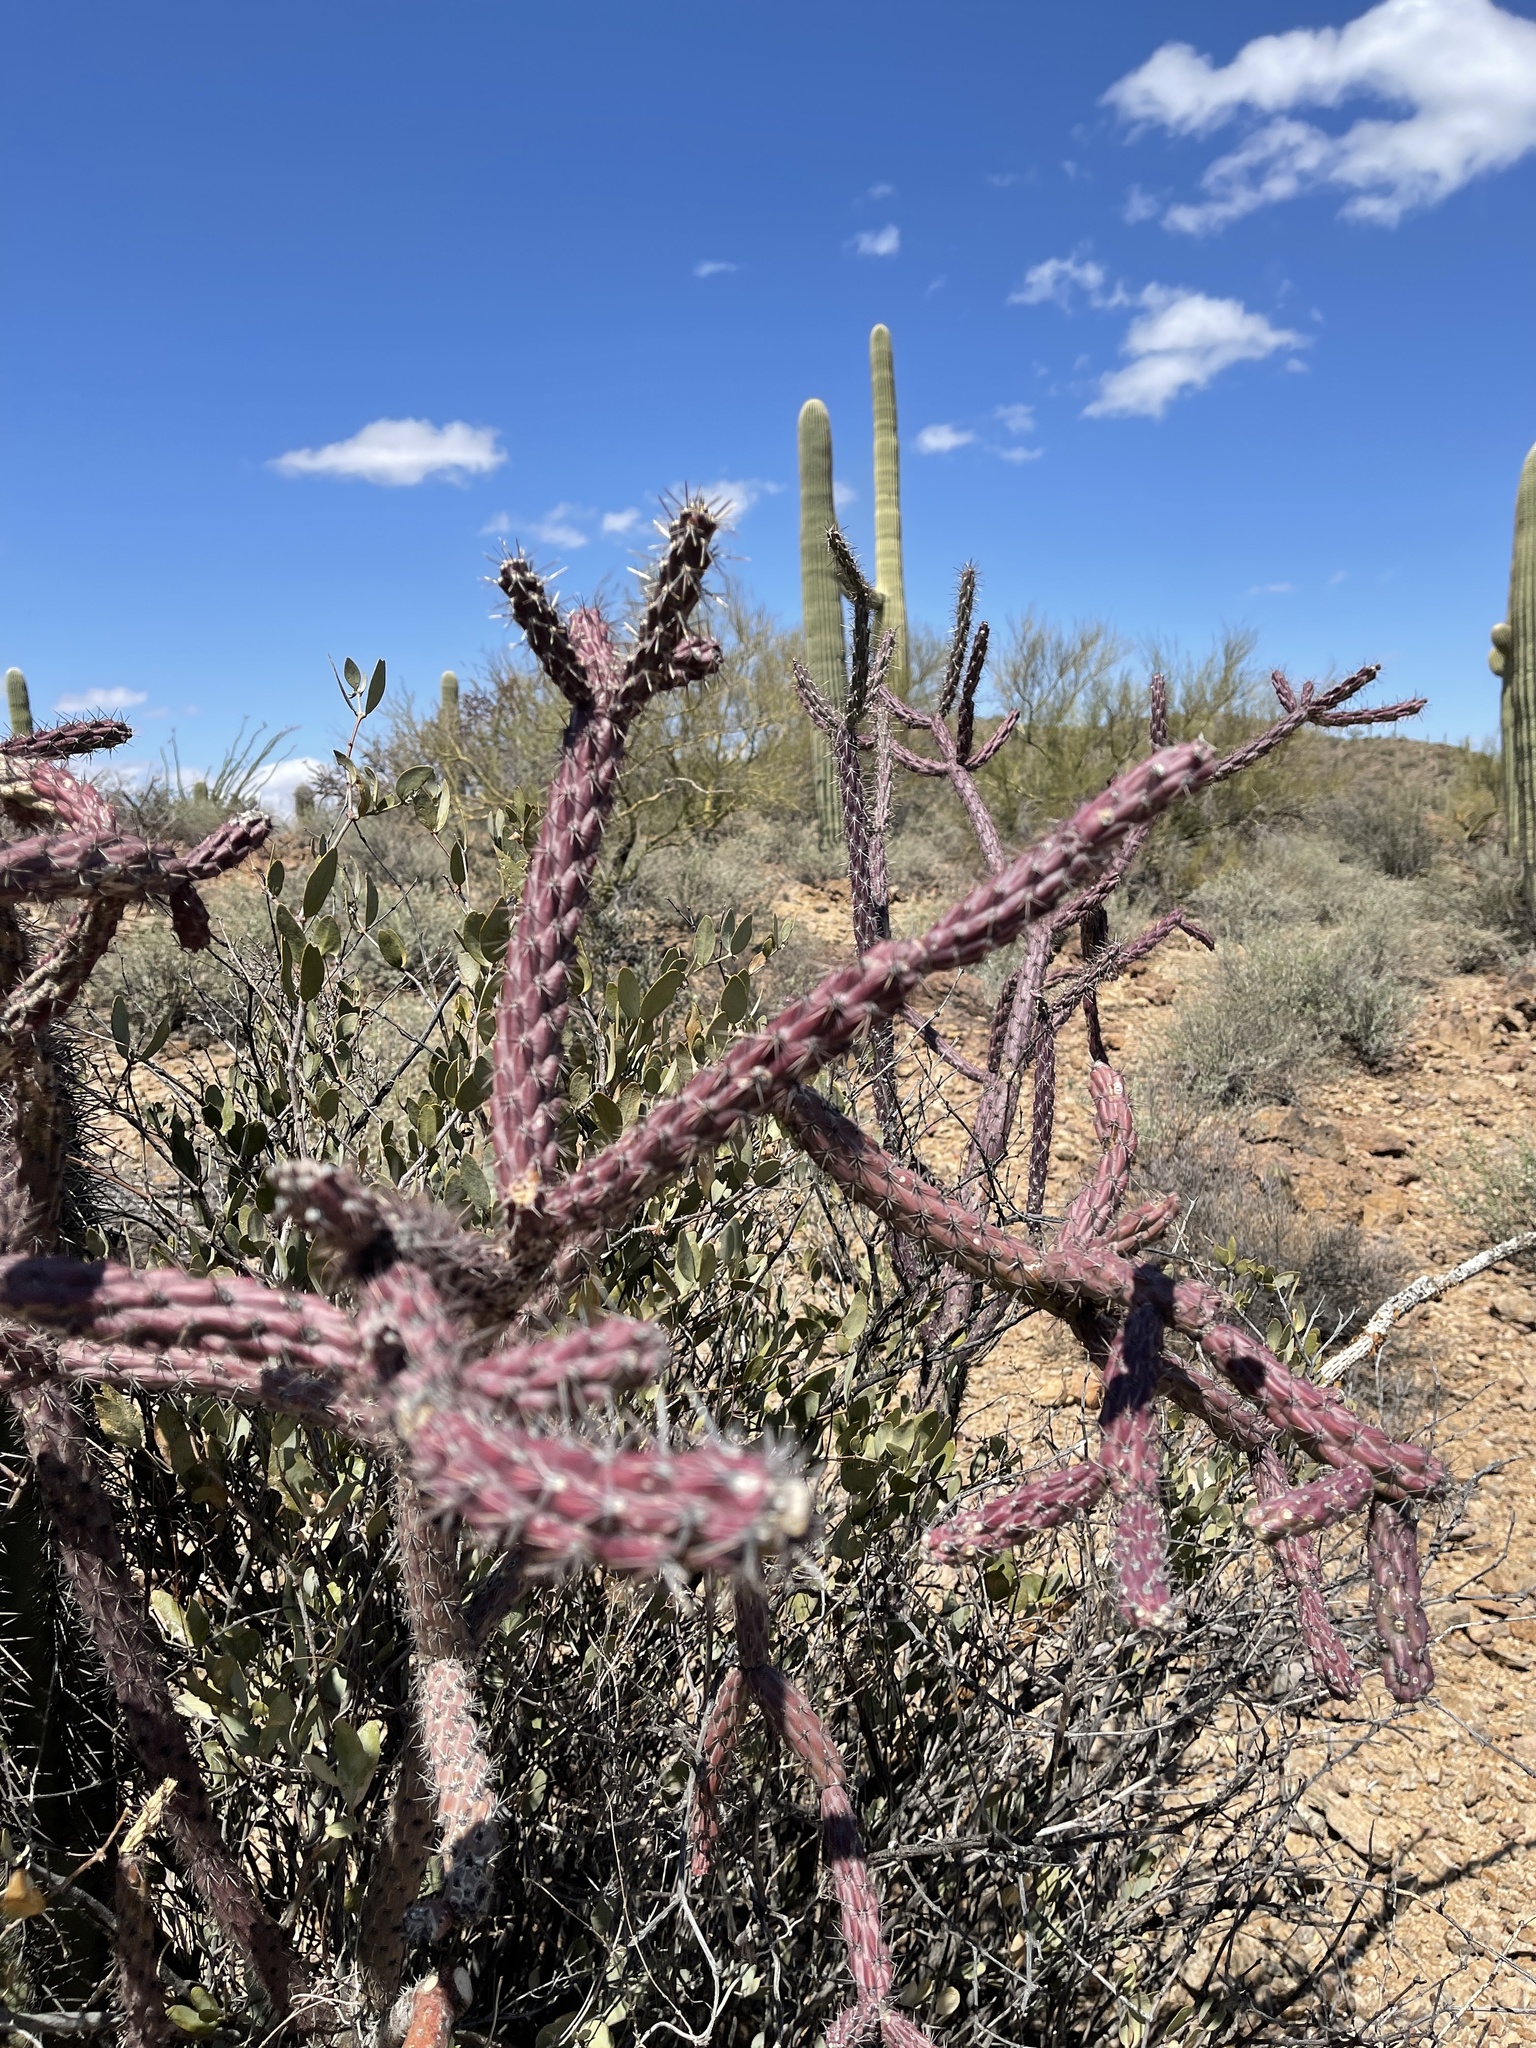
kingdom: Plantae
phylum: Tracheophyta
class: Magnoliopsida
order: Caryophyllales
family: Cactaceae
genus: Cylindropuntia
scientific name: Cylindropuntia thurberi
